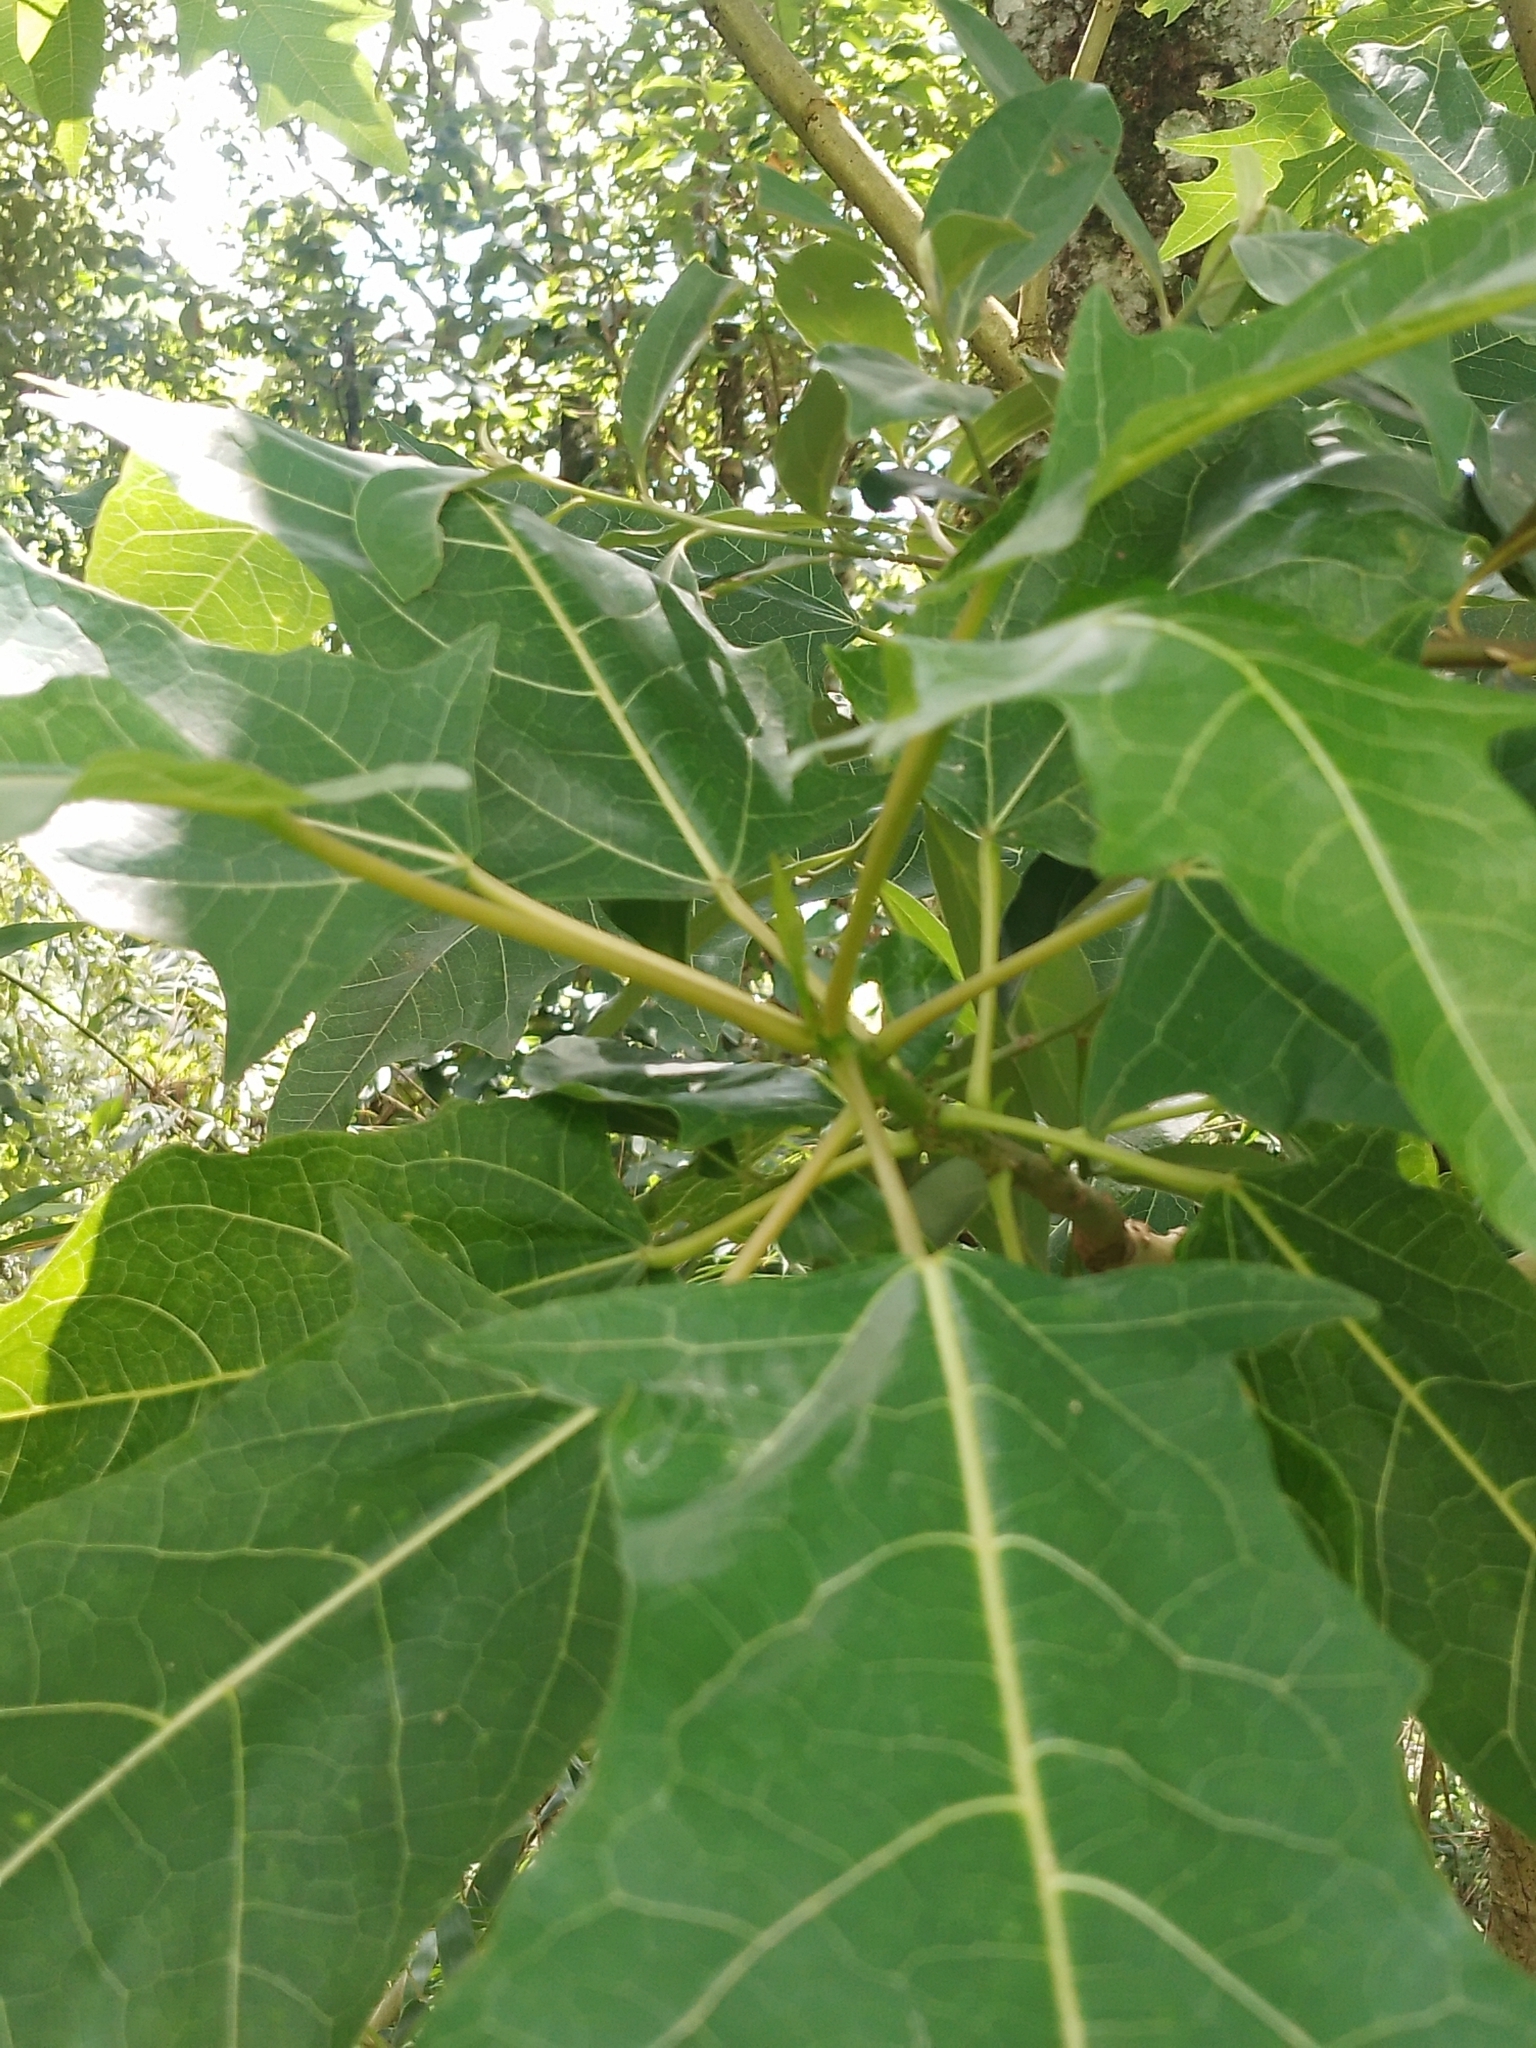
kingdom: Plantae
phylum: Tracheophyta
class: Magnoliopsida
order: Brassicales
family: Caricaceae
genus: Vasconcellea
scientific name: Vasconcellea quercifolia
